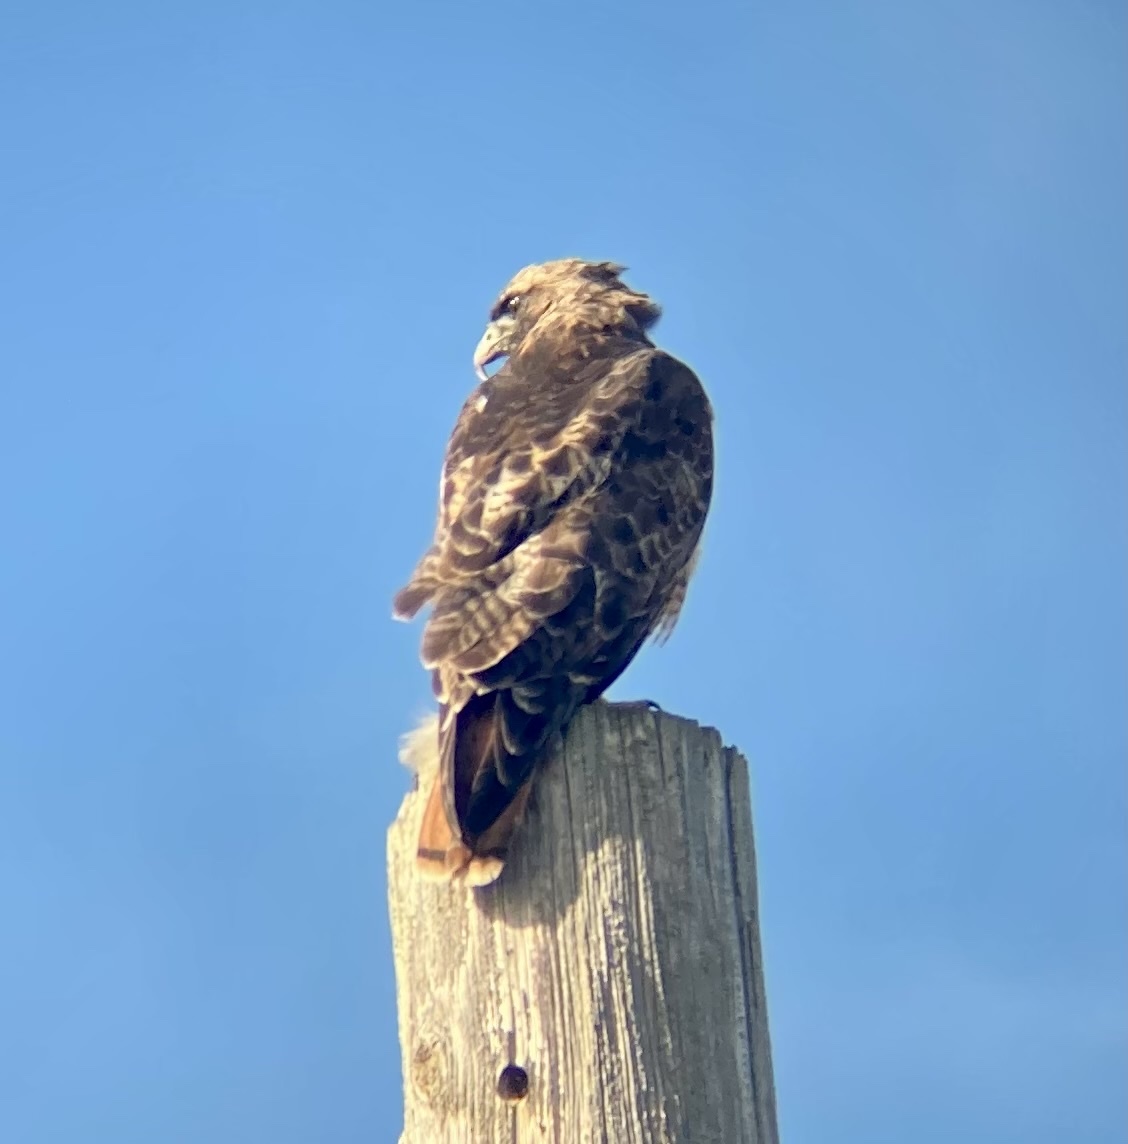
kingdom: Animalia
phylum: Chordata
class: Aves
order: Accipitriformes
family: Accipitridae
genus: Buteo
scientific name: Buteo jamaicensis
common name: Red-tailed hawk
